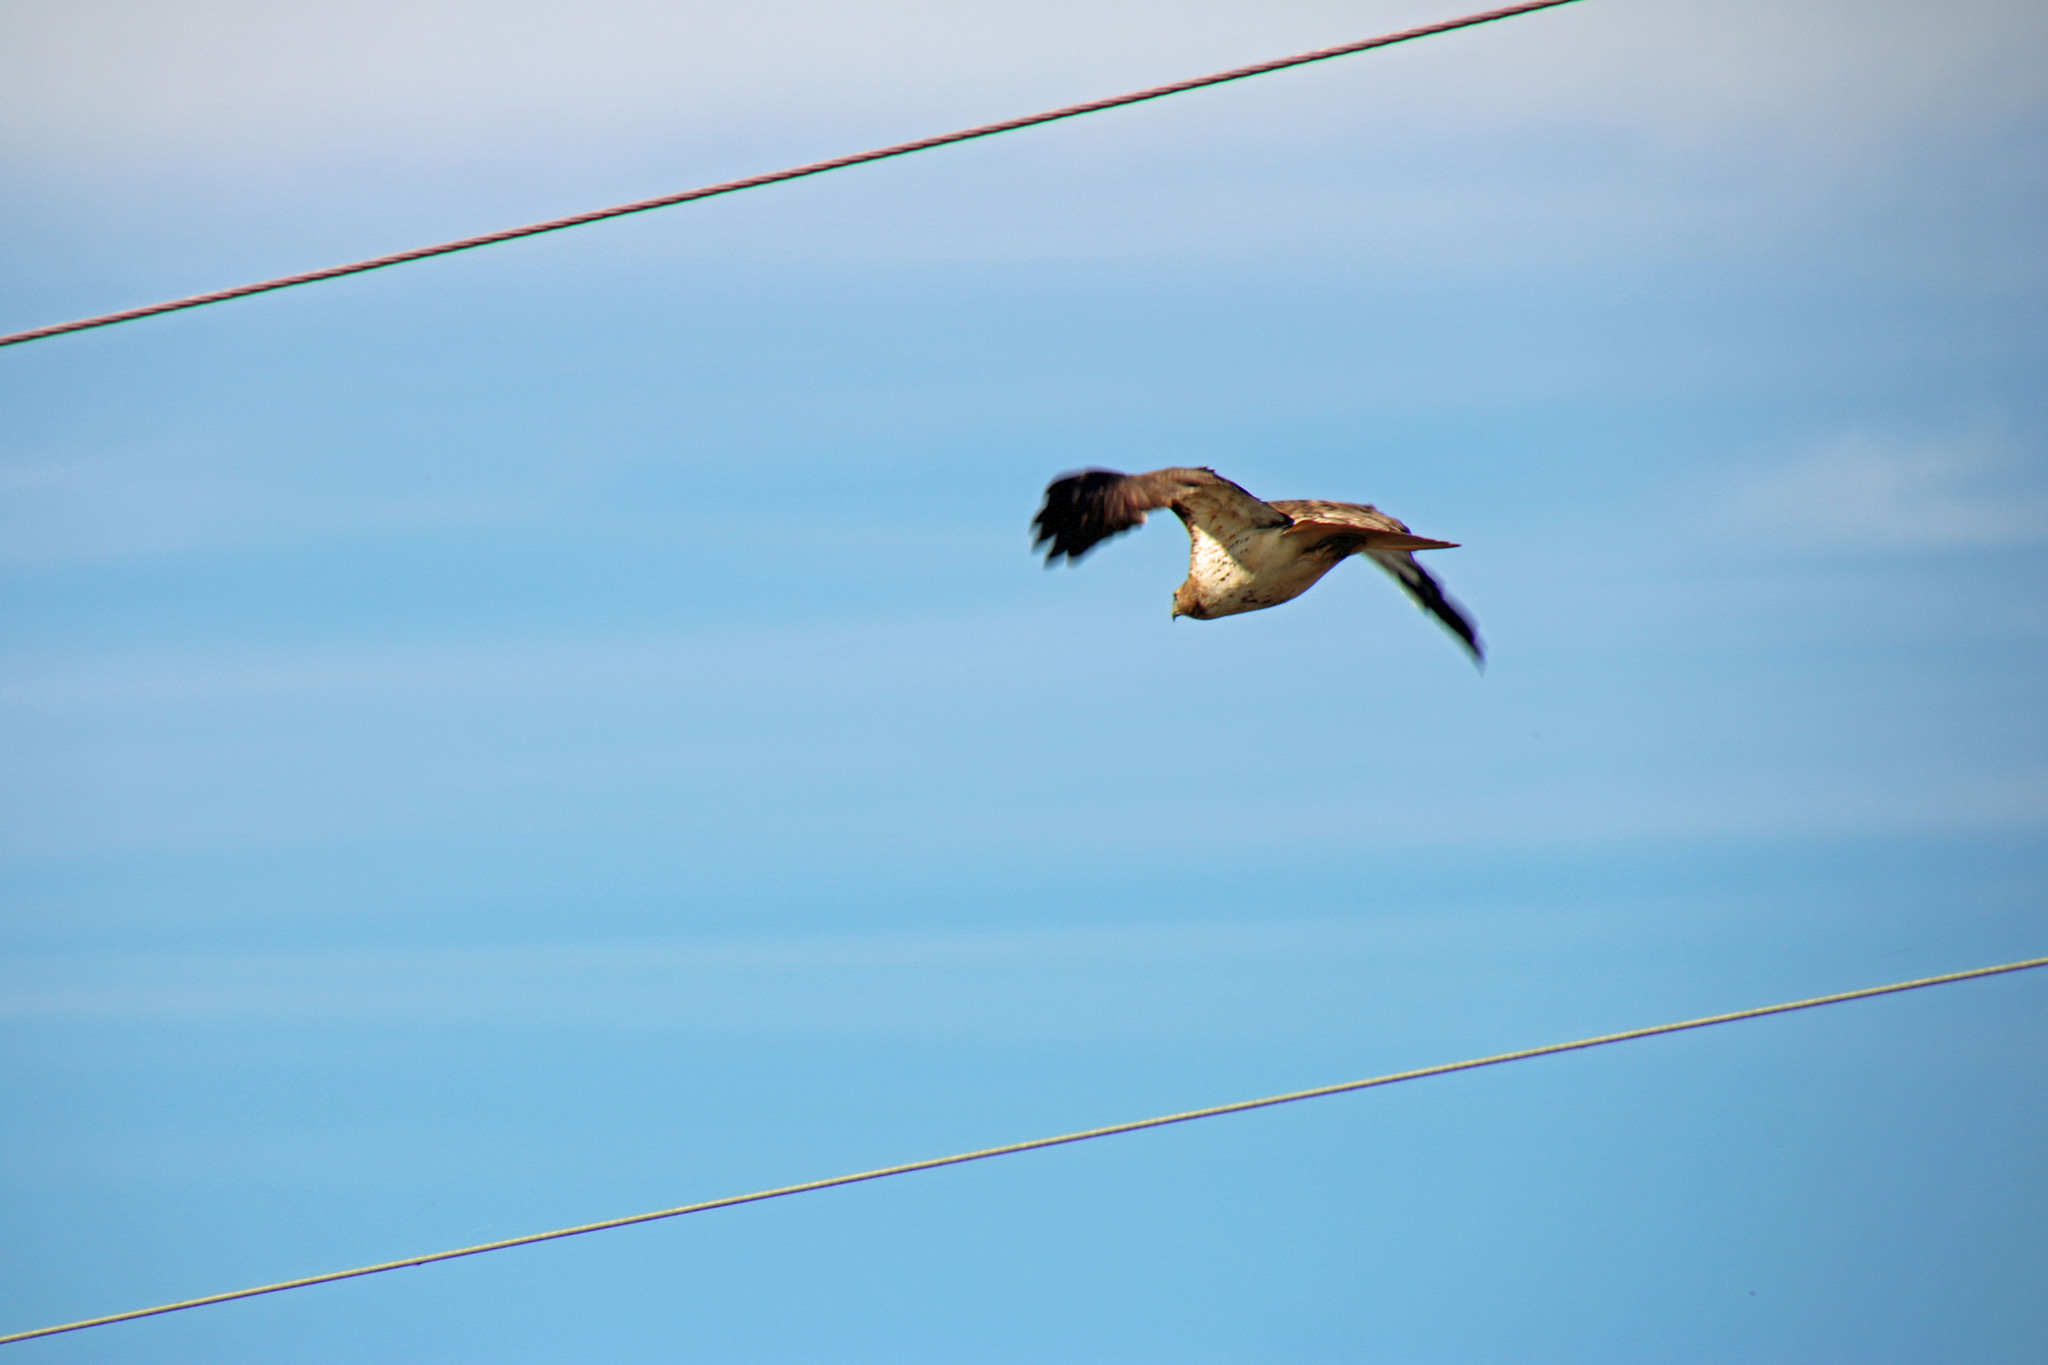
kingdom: Animalia
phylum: Chordata
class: Aves
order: Accipitriformes
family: Accipitridae
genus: Buteo
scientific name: Buteo jamaicensis
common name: Red-tailed hawk
